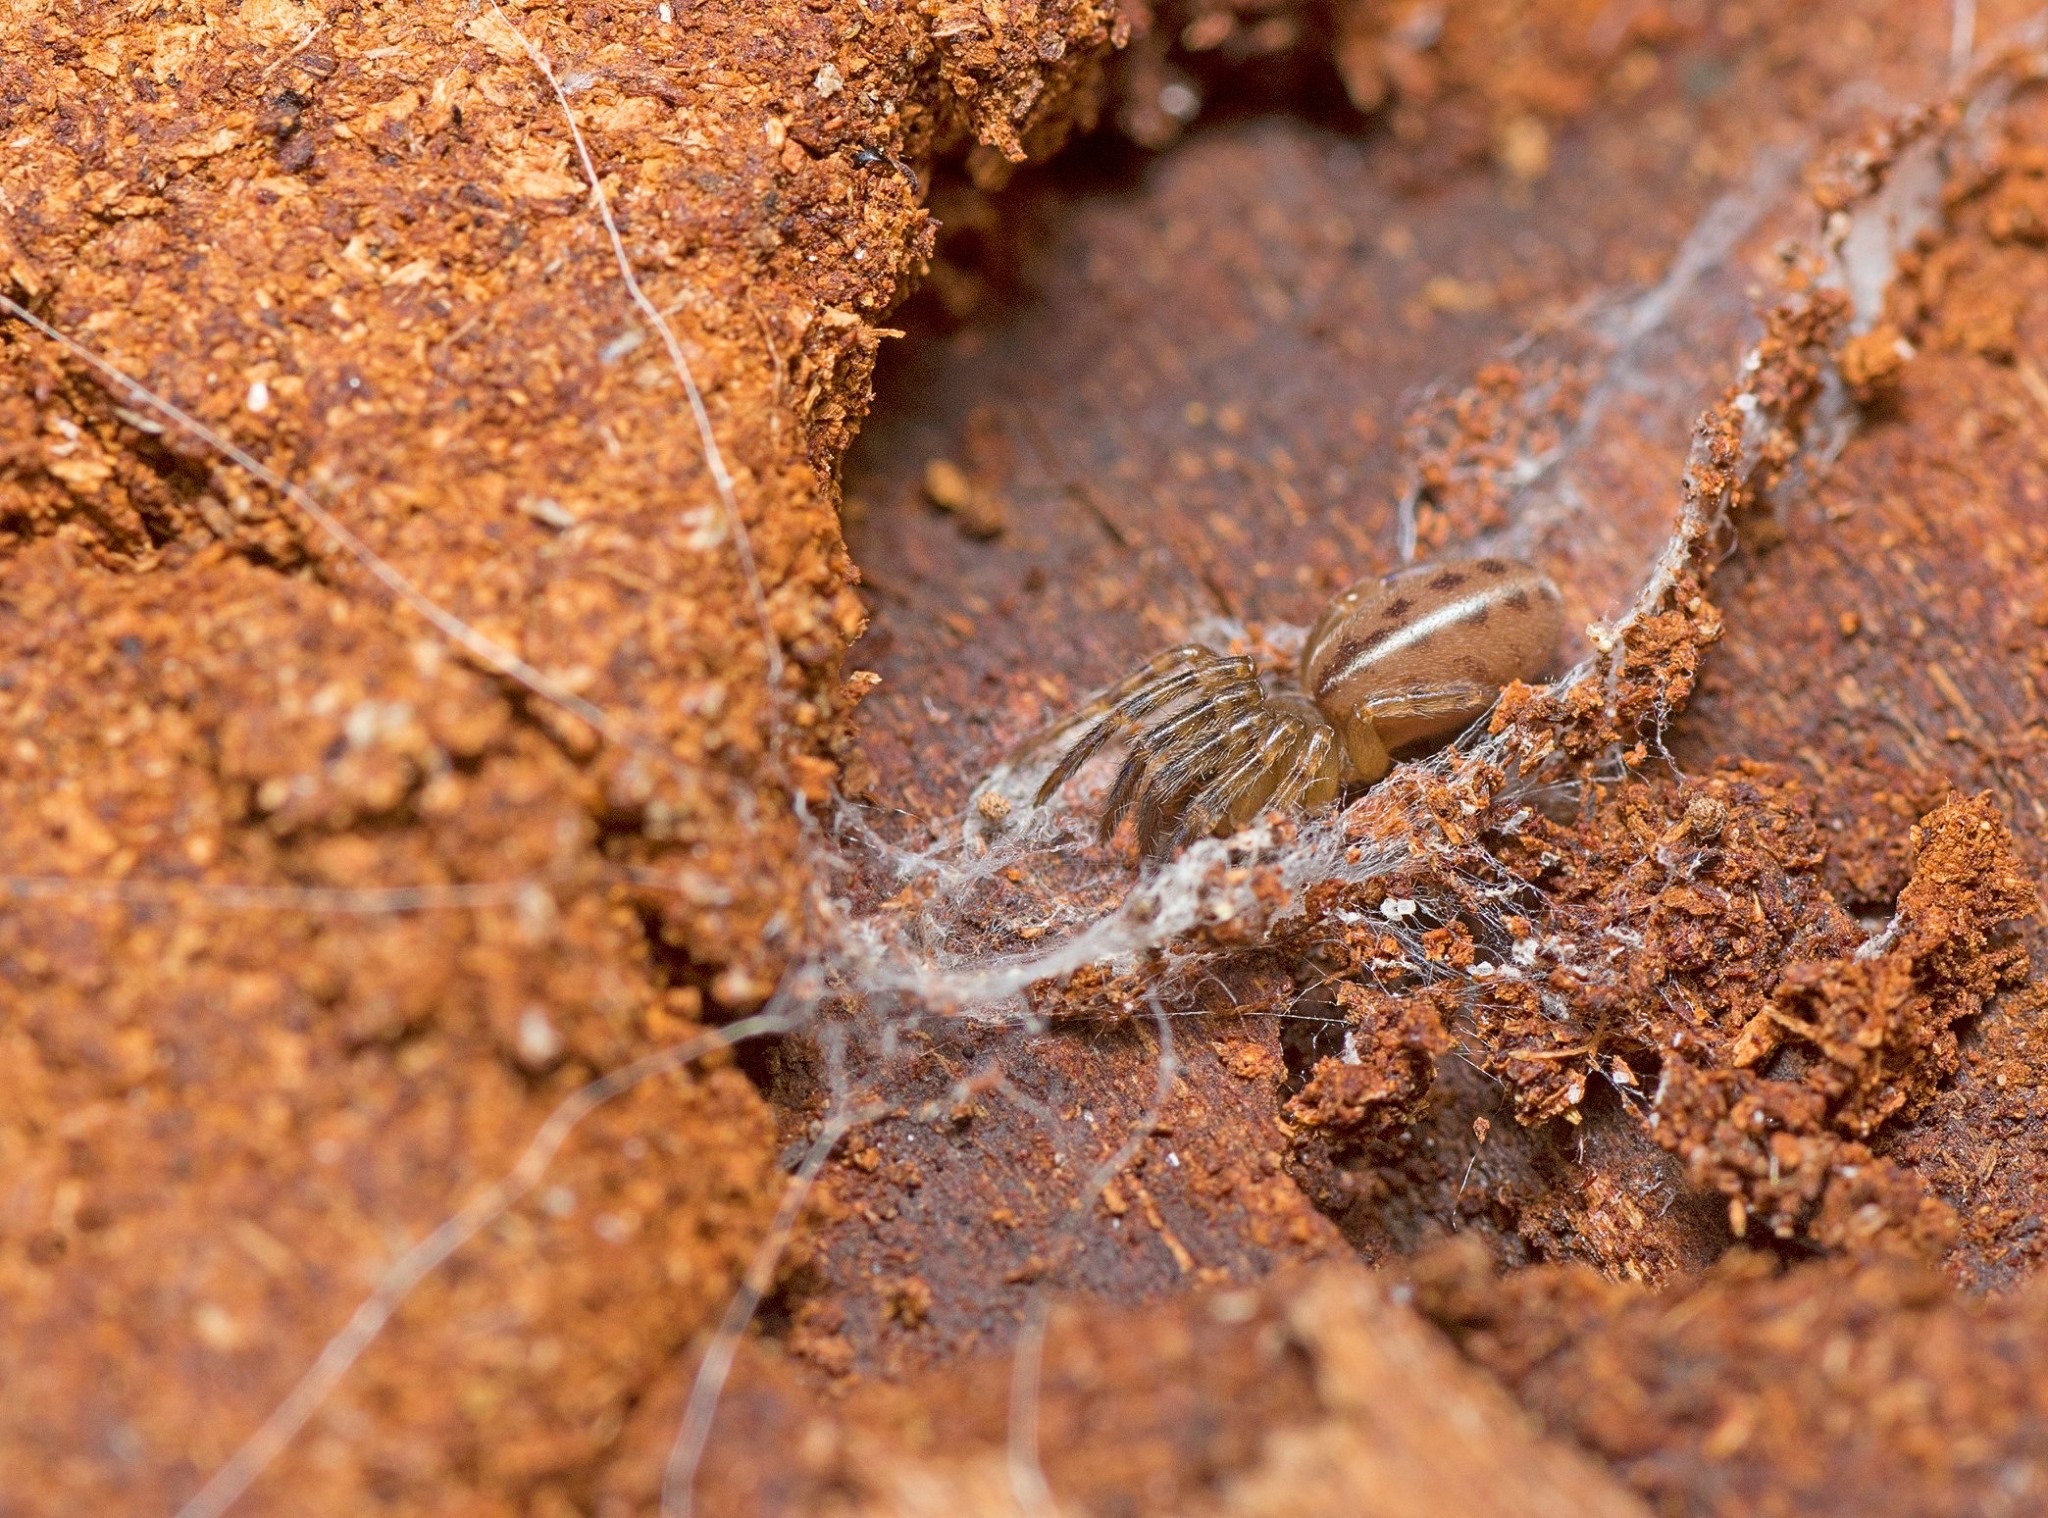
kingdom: Animalia
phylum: Arthropoda
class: Arachnida
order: Araneae
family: Segestriidae
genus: Gippsicola
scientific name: Gippsicola robusta
